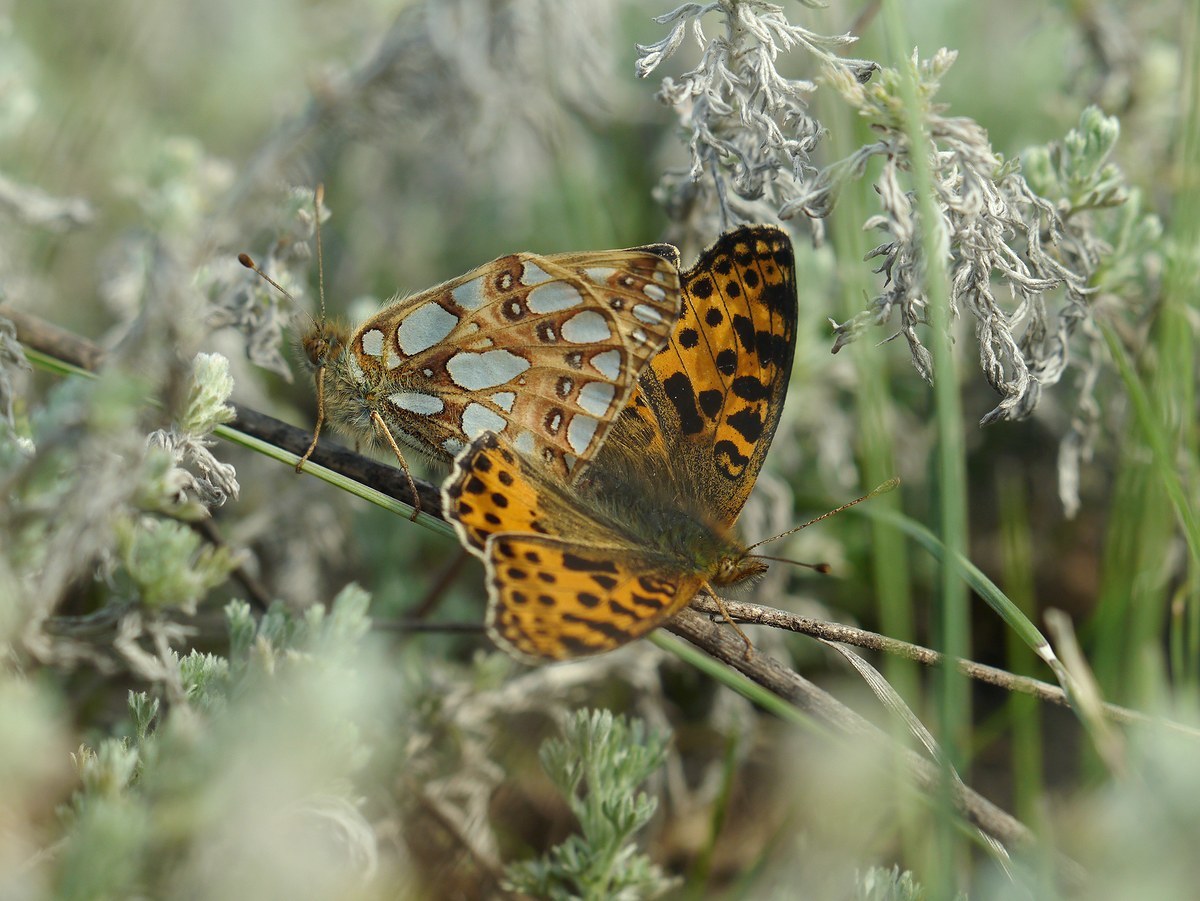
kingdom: Animalia
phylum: Arthropoda
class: Insecta
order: Lepidoptera
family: Nymphalidae
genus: Issoria
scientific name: Issoria lathonia
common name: Queen of spain fritillary
